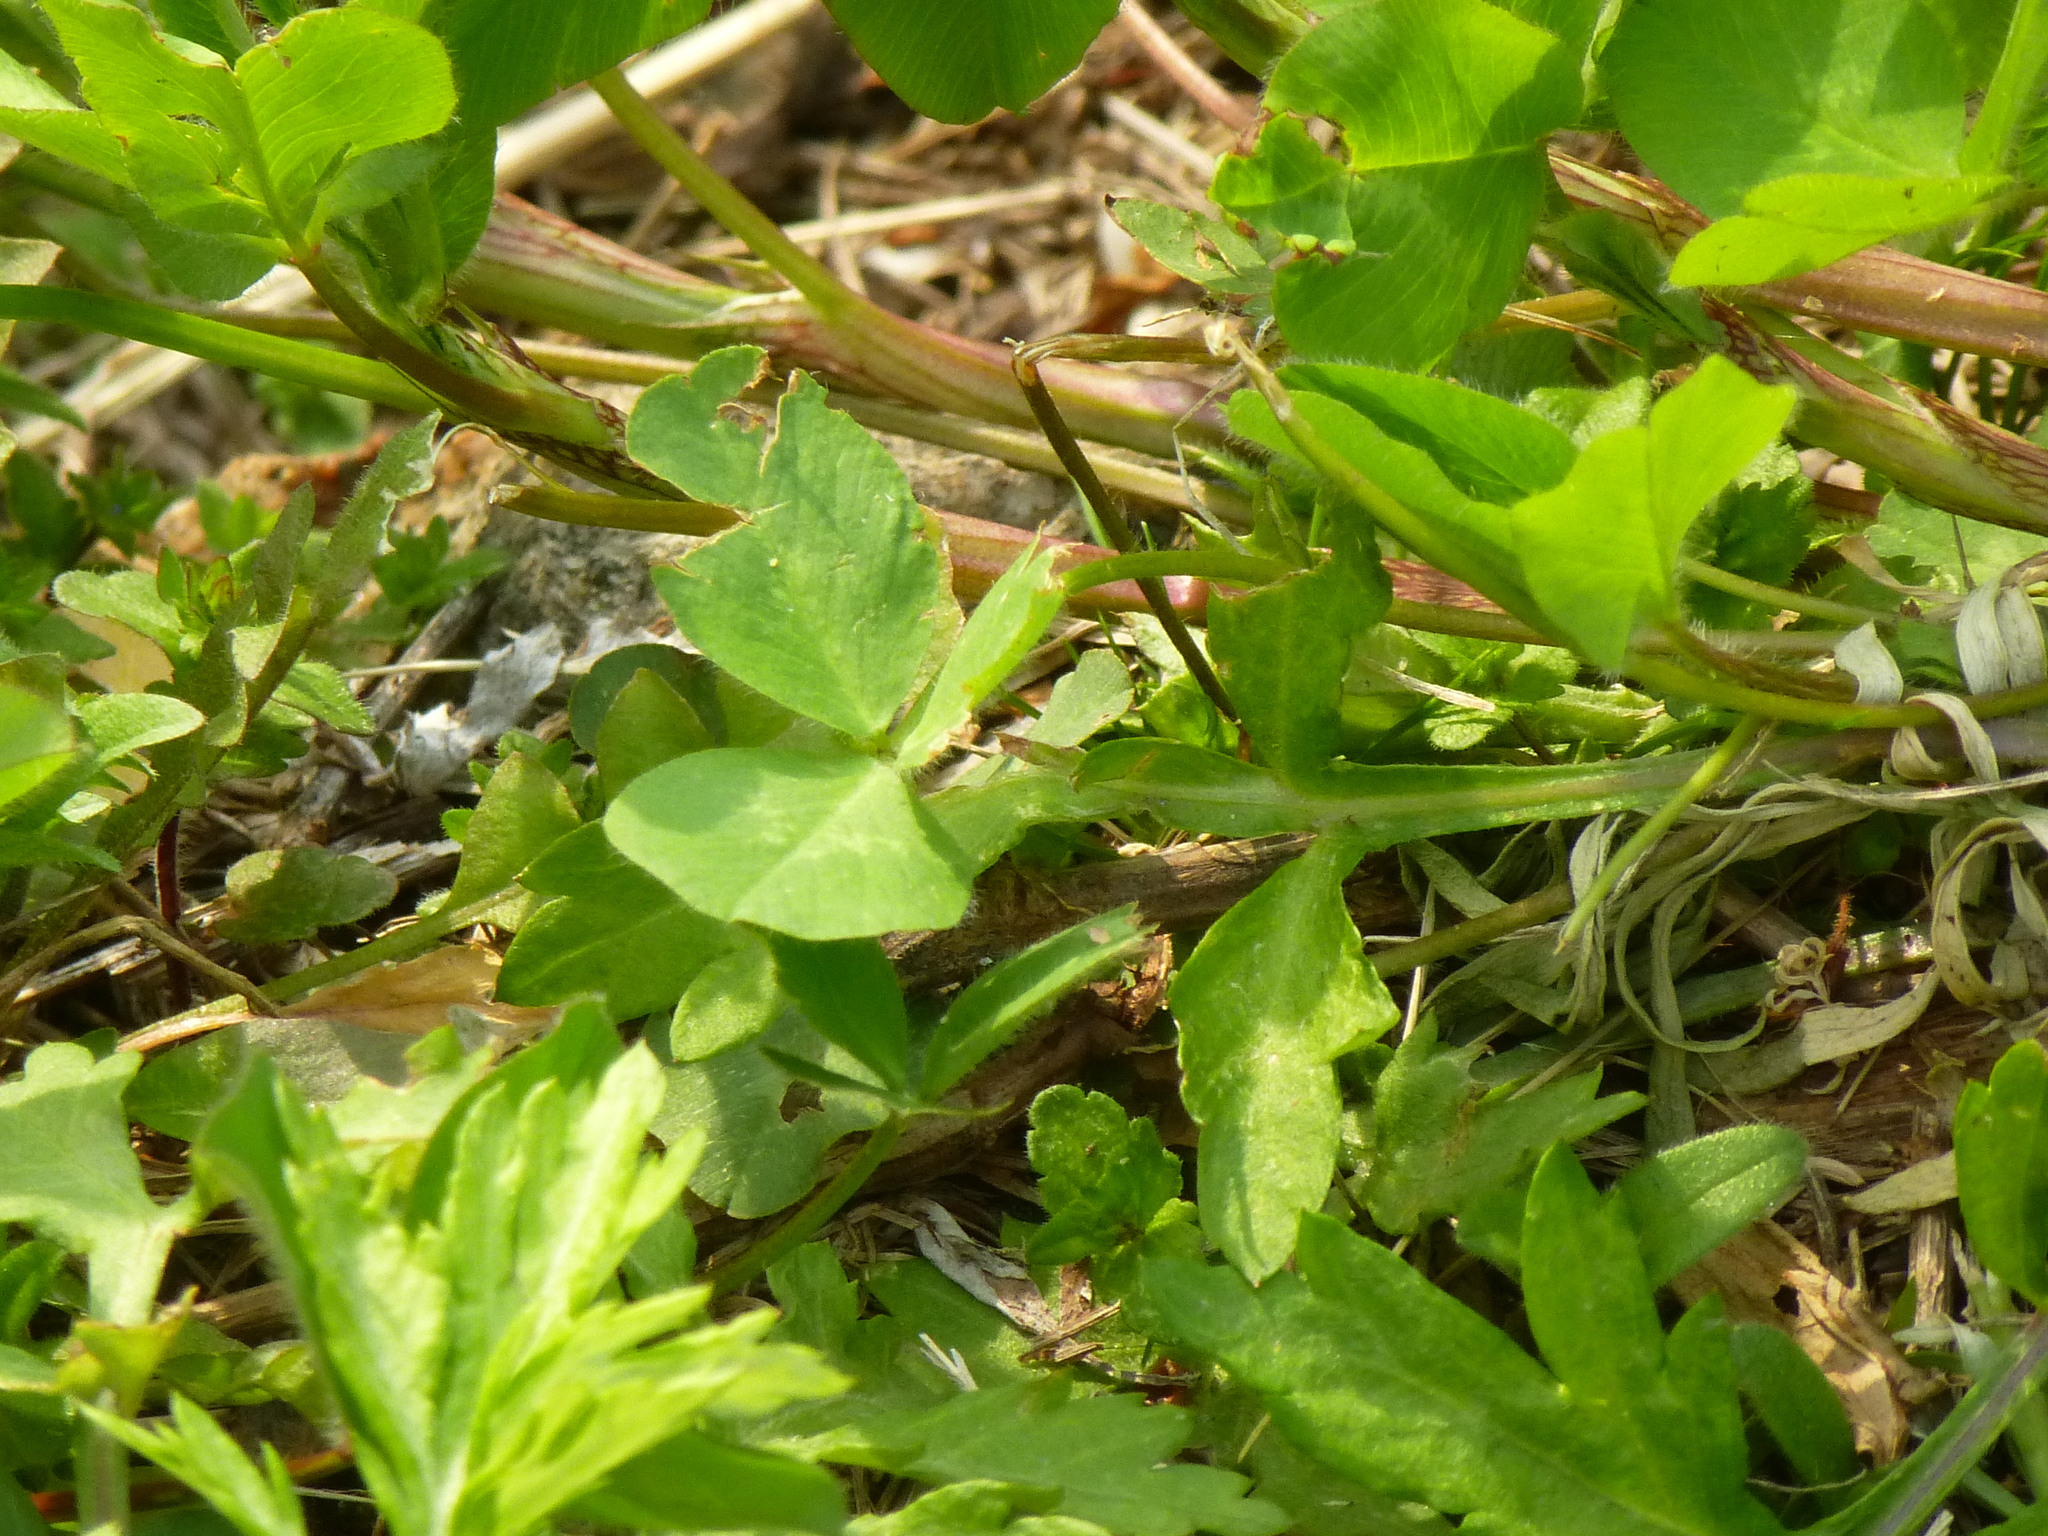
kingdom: Plantae
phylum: Tracheophyta
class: Magnoliopsida
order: Fabales
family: Fabaceae
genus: Trifolium
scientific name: Trifolium pratense
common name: Red clover
